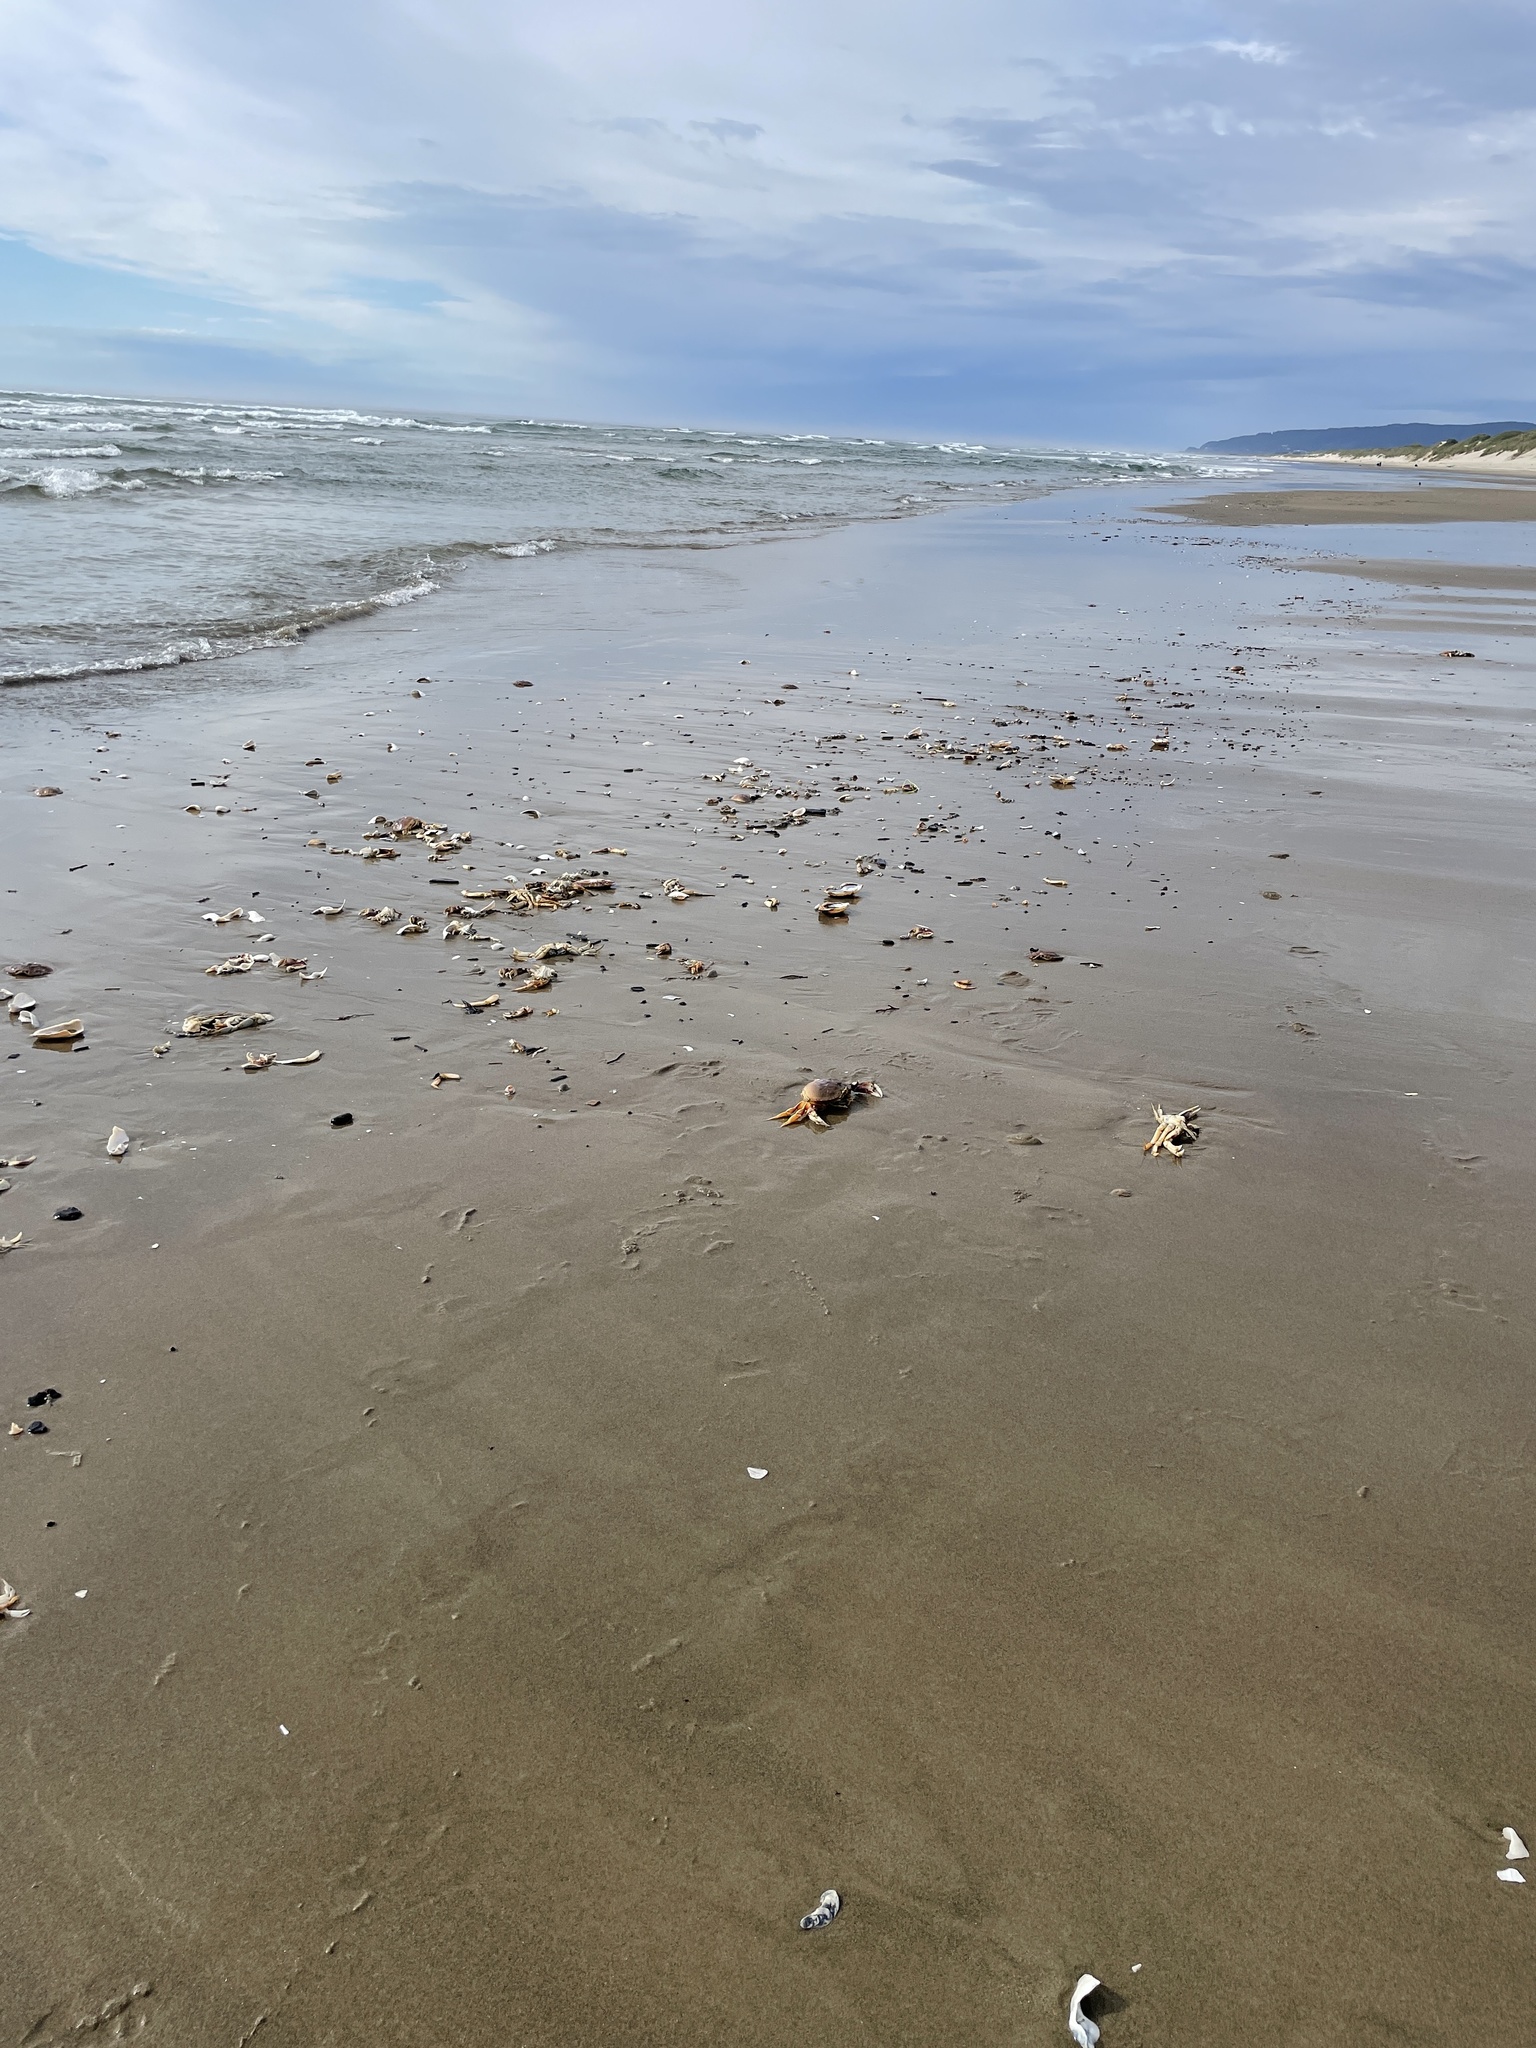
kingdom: Animalia
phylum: Arthropoda
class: Malacostraca
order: Decapoda
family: Cancridae
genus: Metacarcinus
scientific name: Metacarcinus magister
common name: Californian crab
